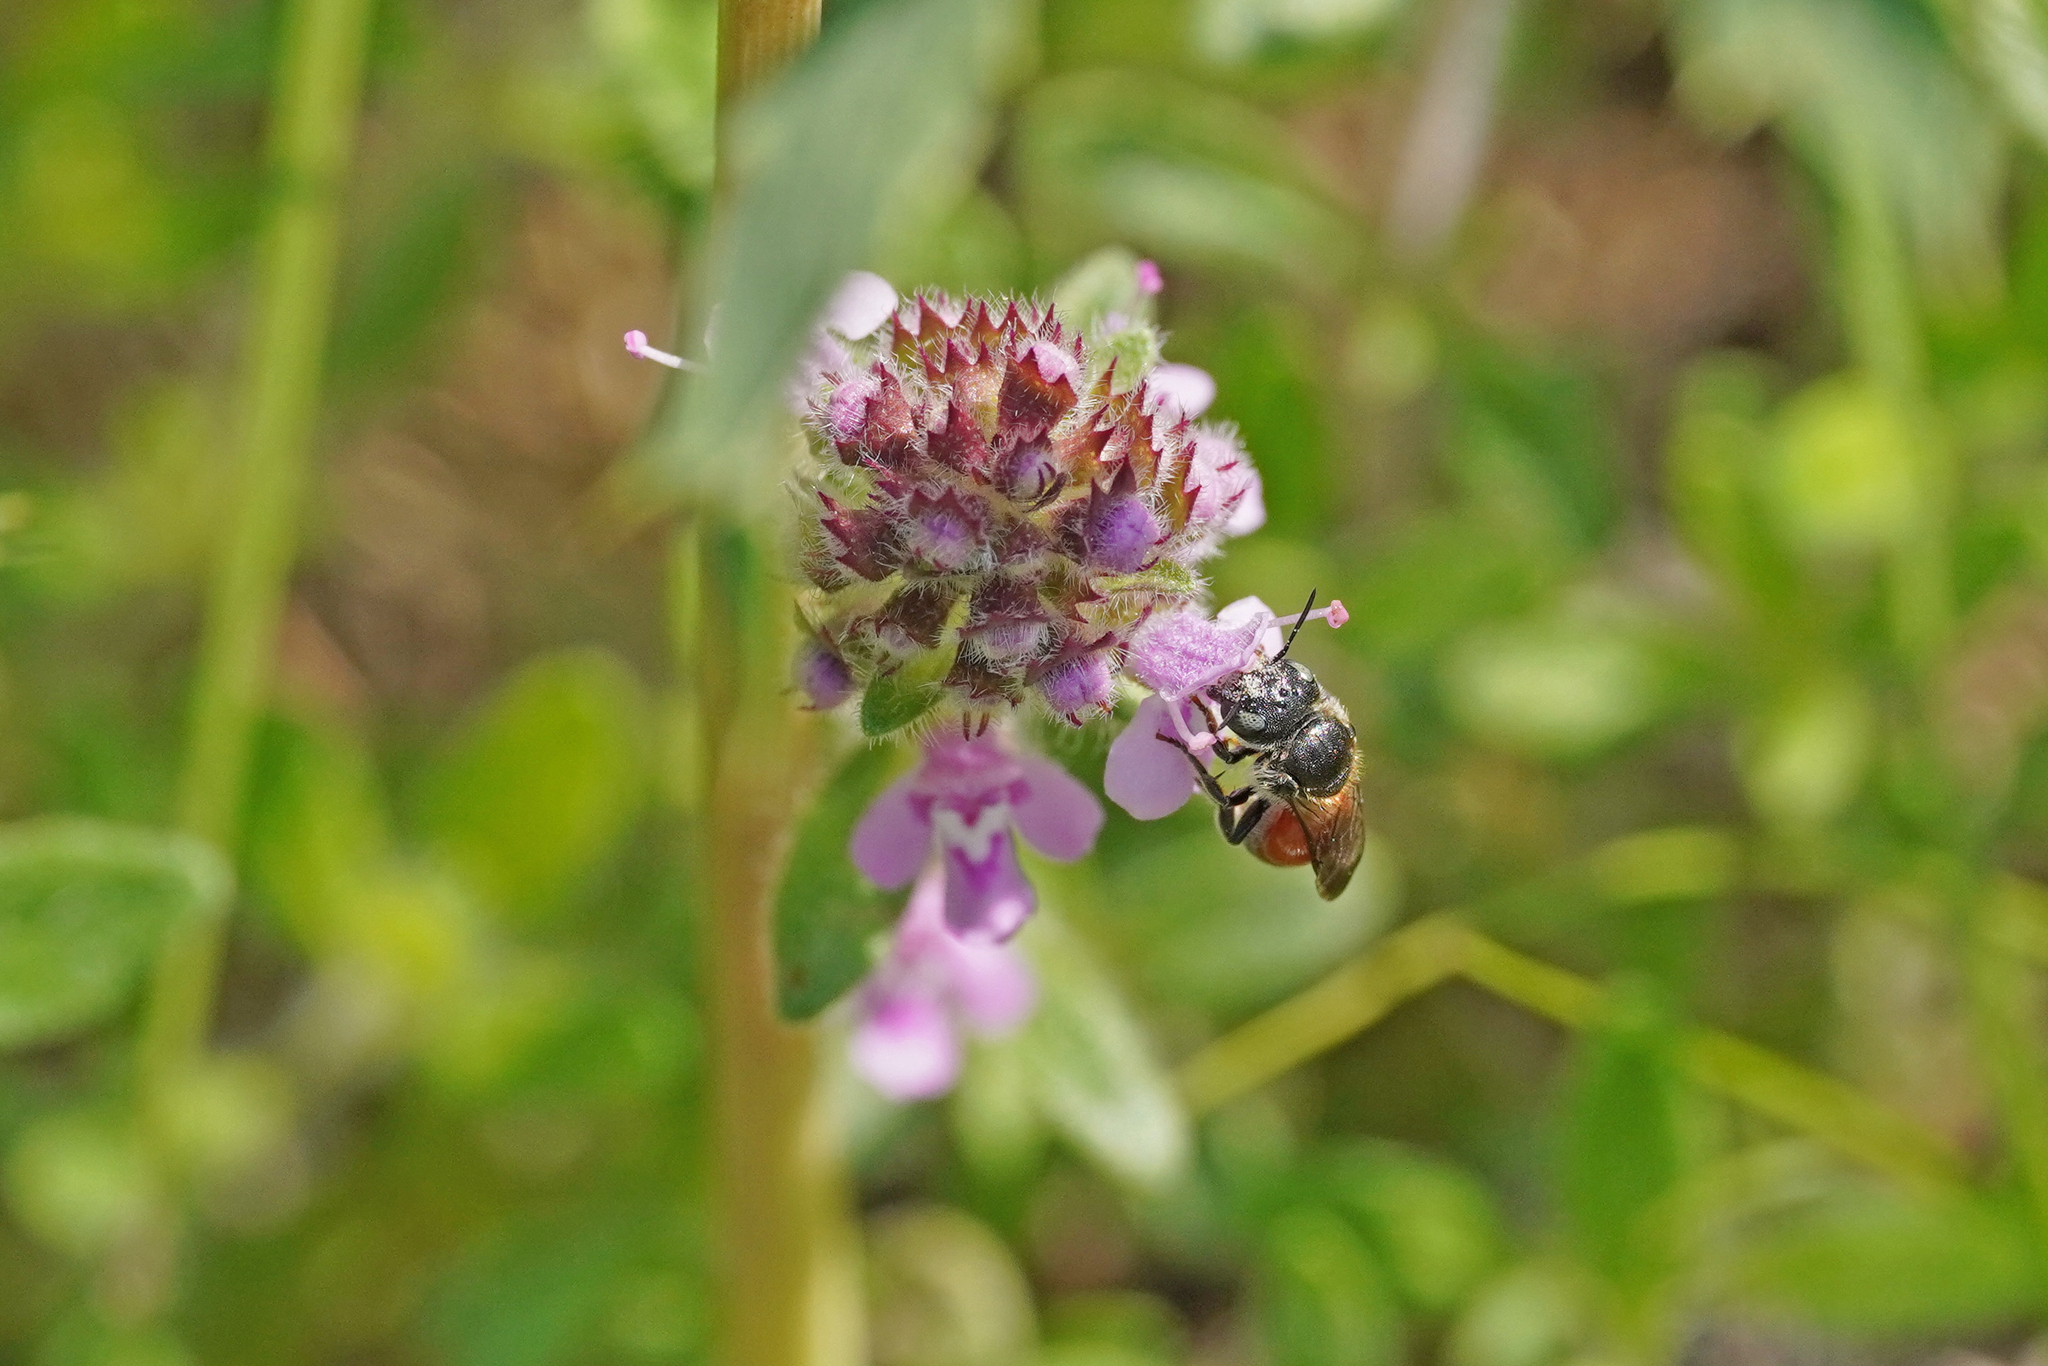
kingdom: Animalia
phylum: Arthropoda
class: Insecta
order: Hymenoptera
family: Megachilidae
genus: Osmia
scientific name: Osmia andrenoides
